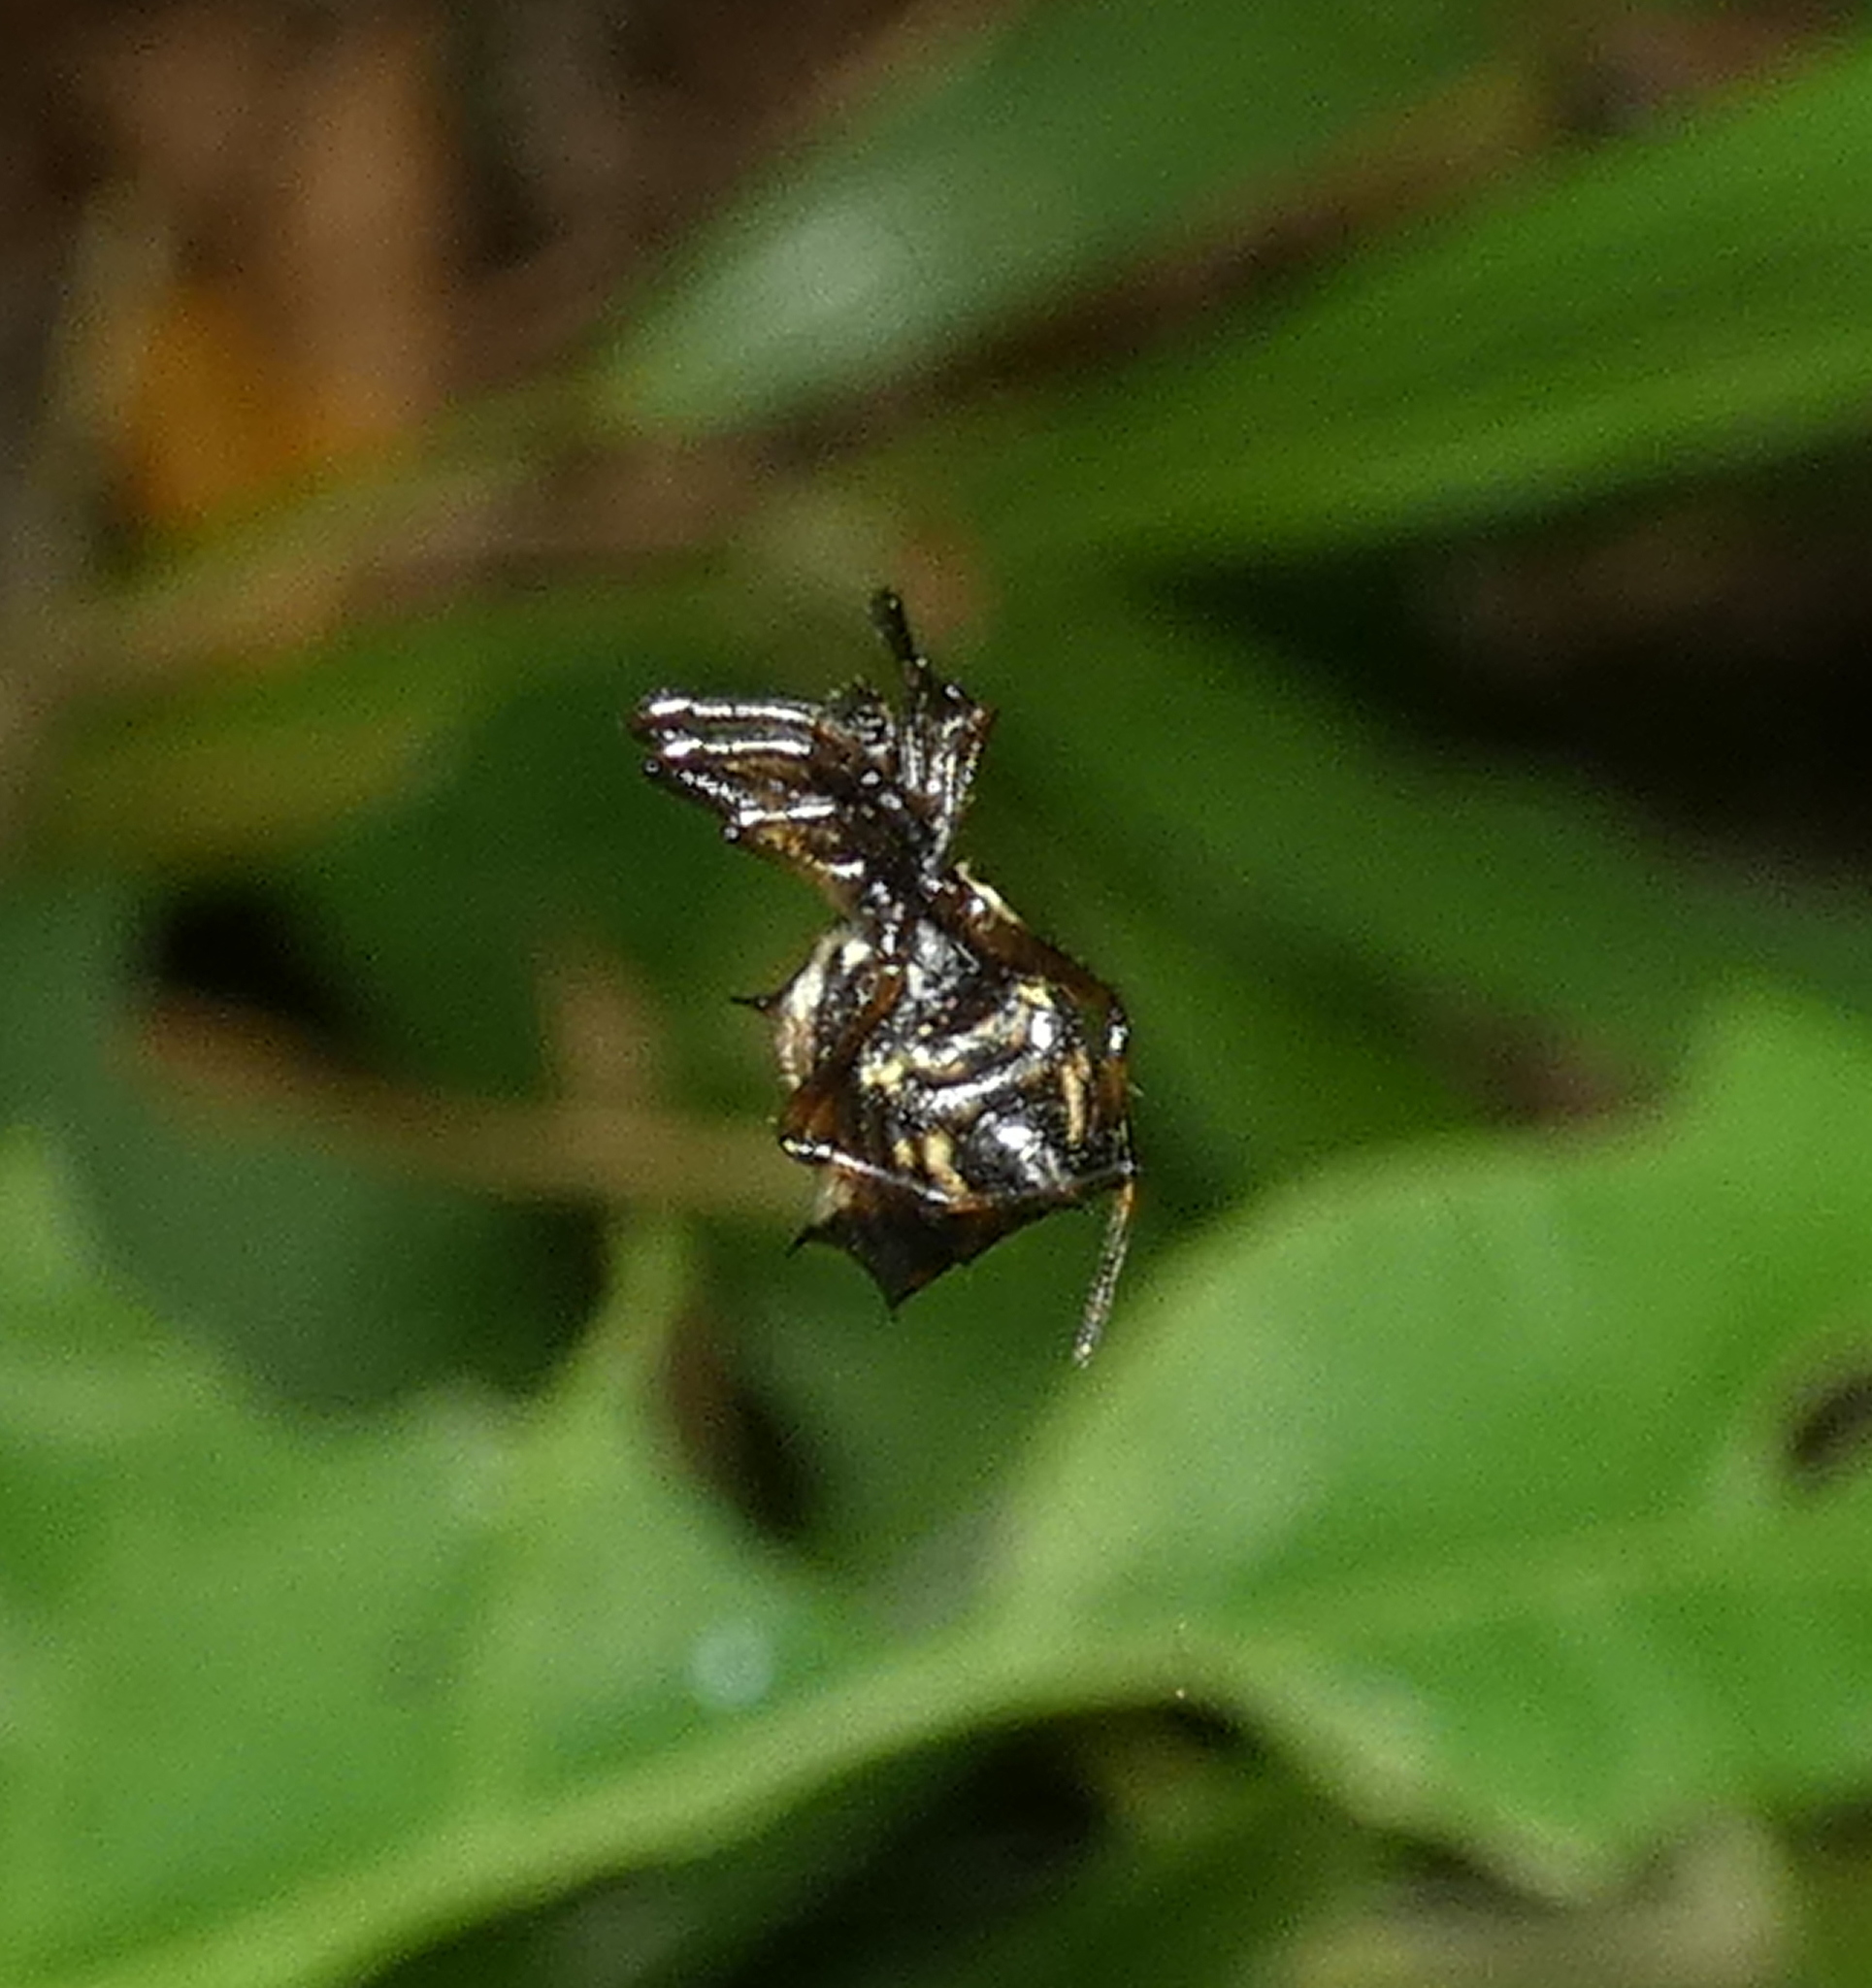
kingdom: Animalia
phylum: Arthropoda
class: Arachnida
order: Araneae
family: Araneidae
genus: Micrathena
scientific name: Micrathena picta
